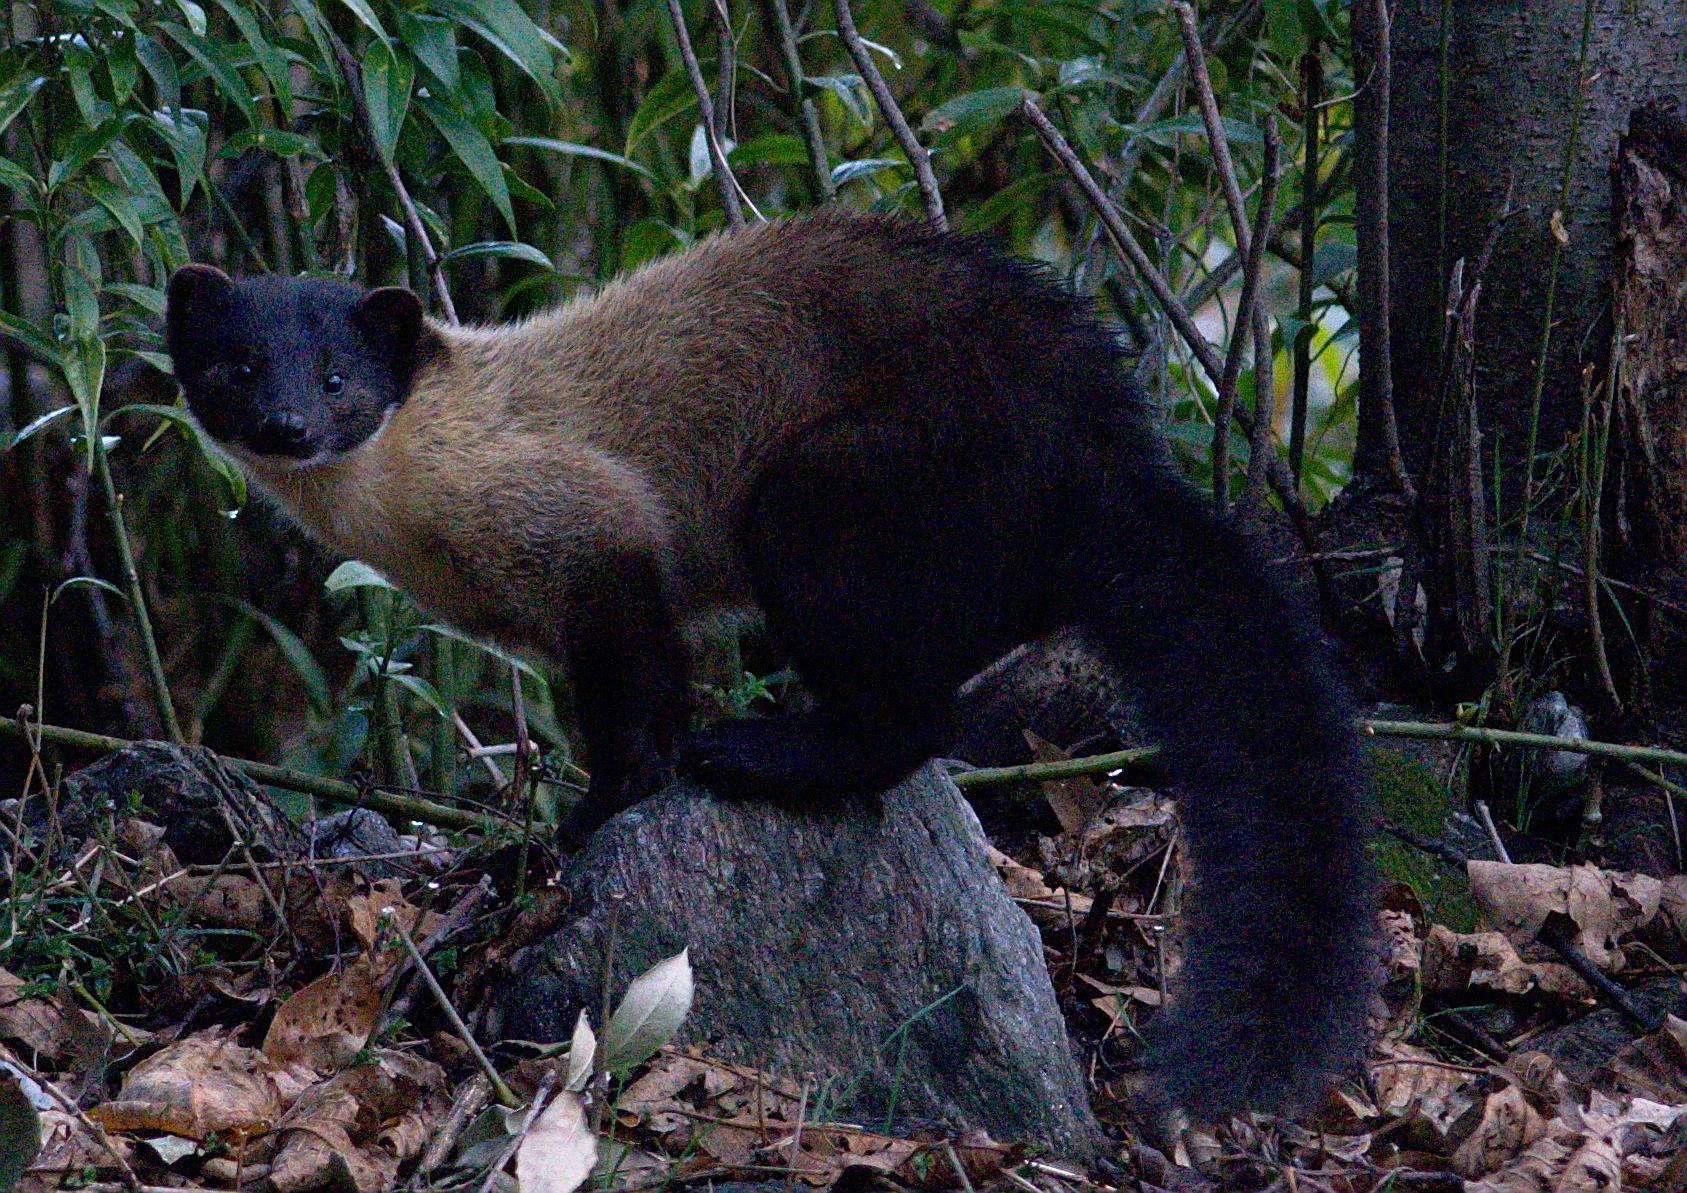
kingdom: Animalia
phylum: Chordata
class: Mammalia
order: Carnivora
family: Mustelidae
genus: Martes
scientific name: Martes flavigula
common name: Yellow-throated marten
